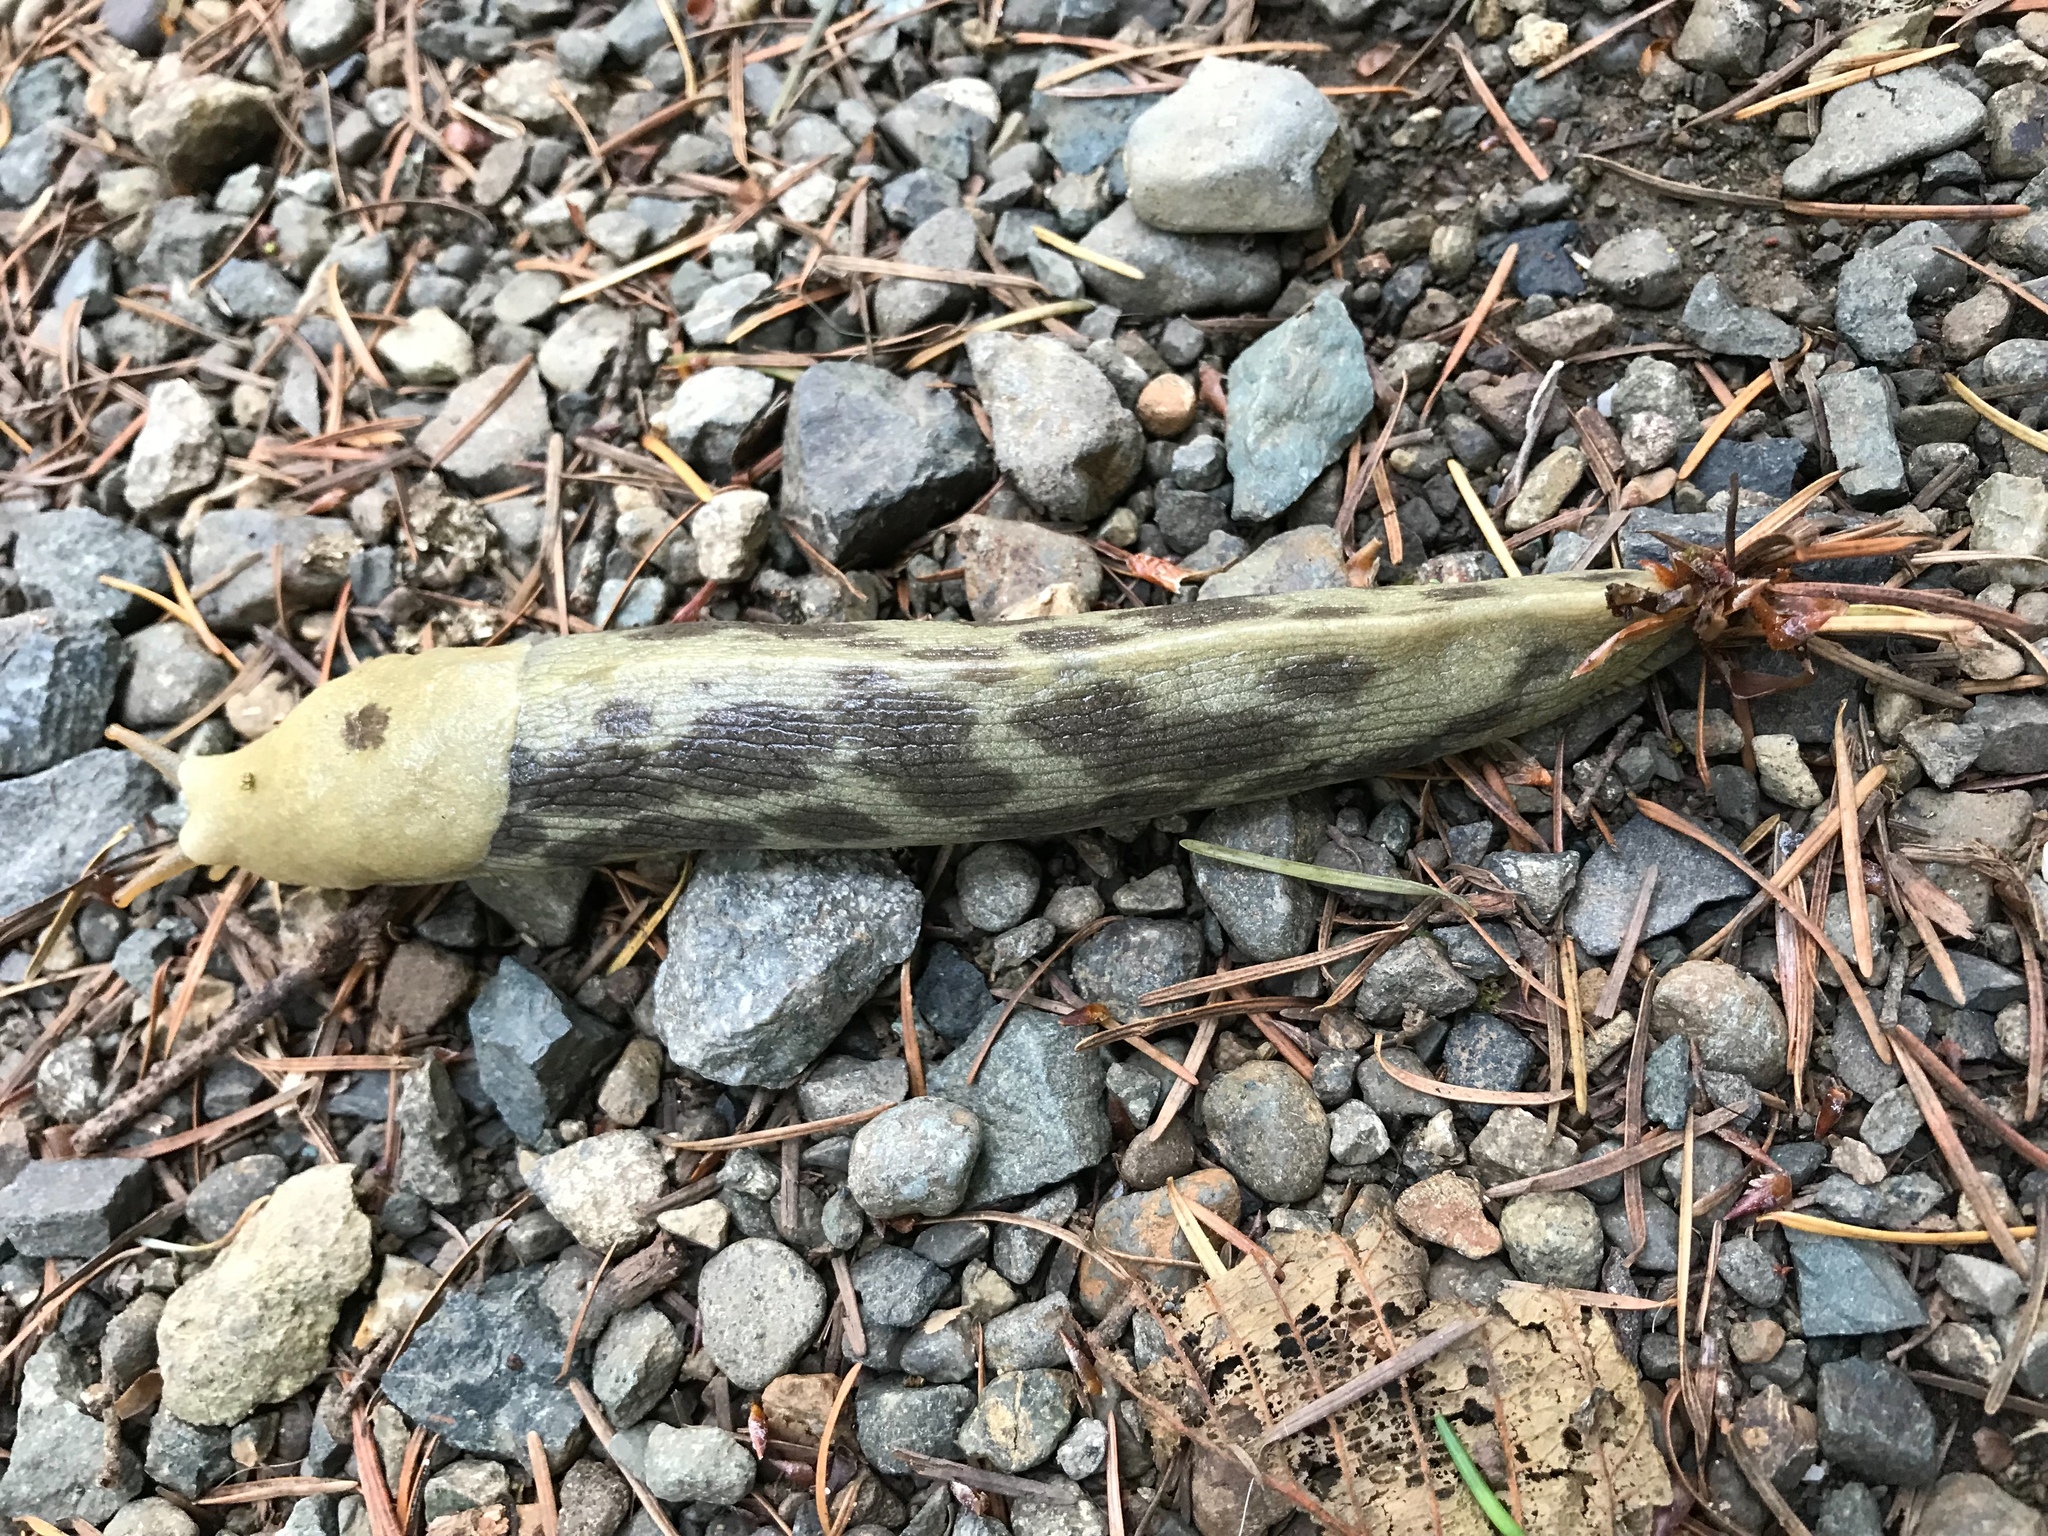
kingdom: Animalia
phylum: Mollusca
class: Gastropoda
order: Stylommatophora
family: Ariolimacidae
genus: Ariolimax
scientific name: Ariolimax columbianus
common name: Pacific banana slug
